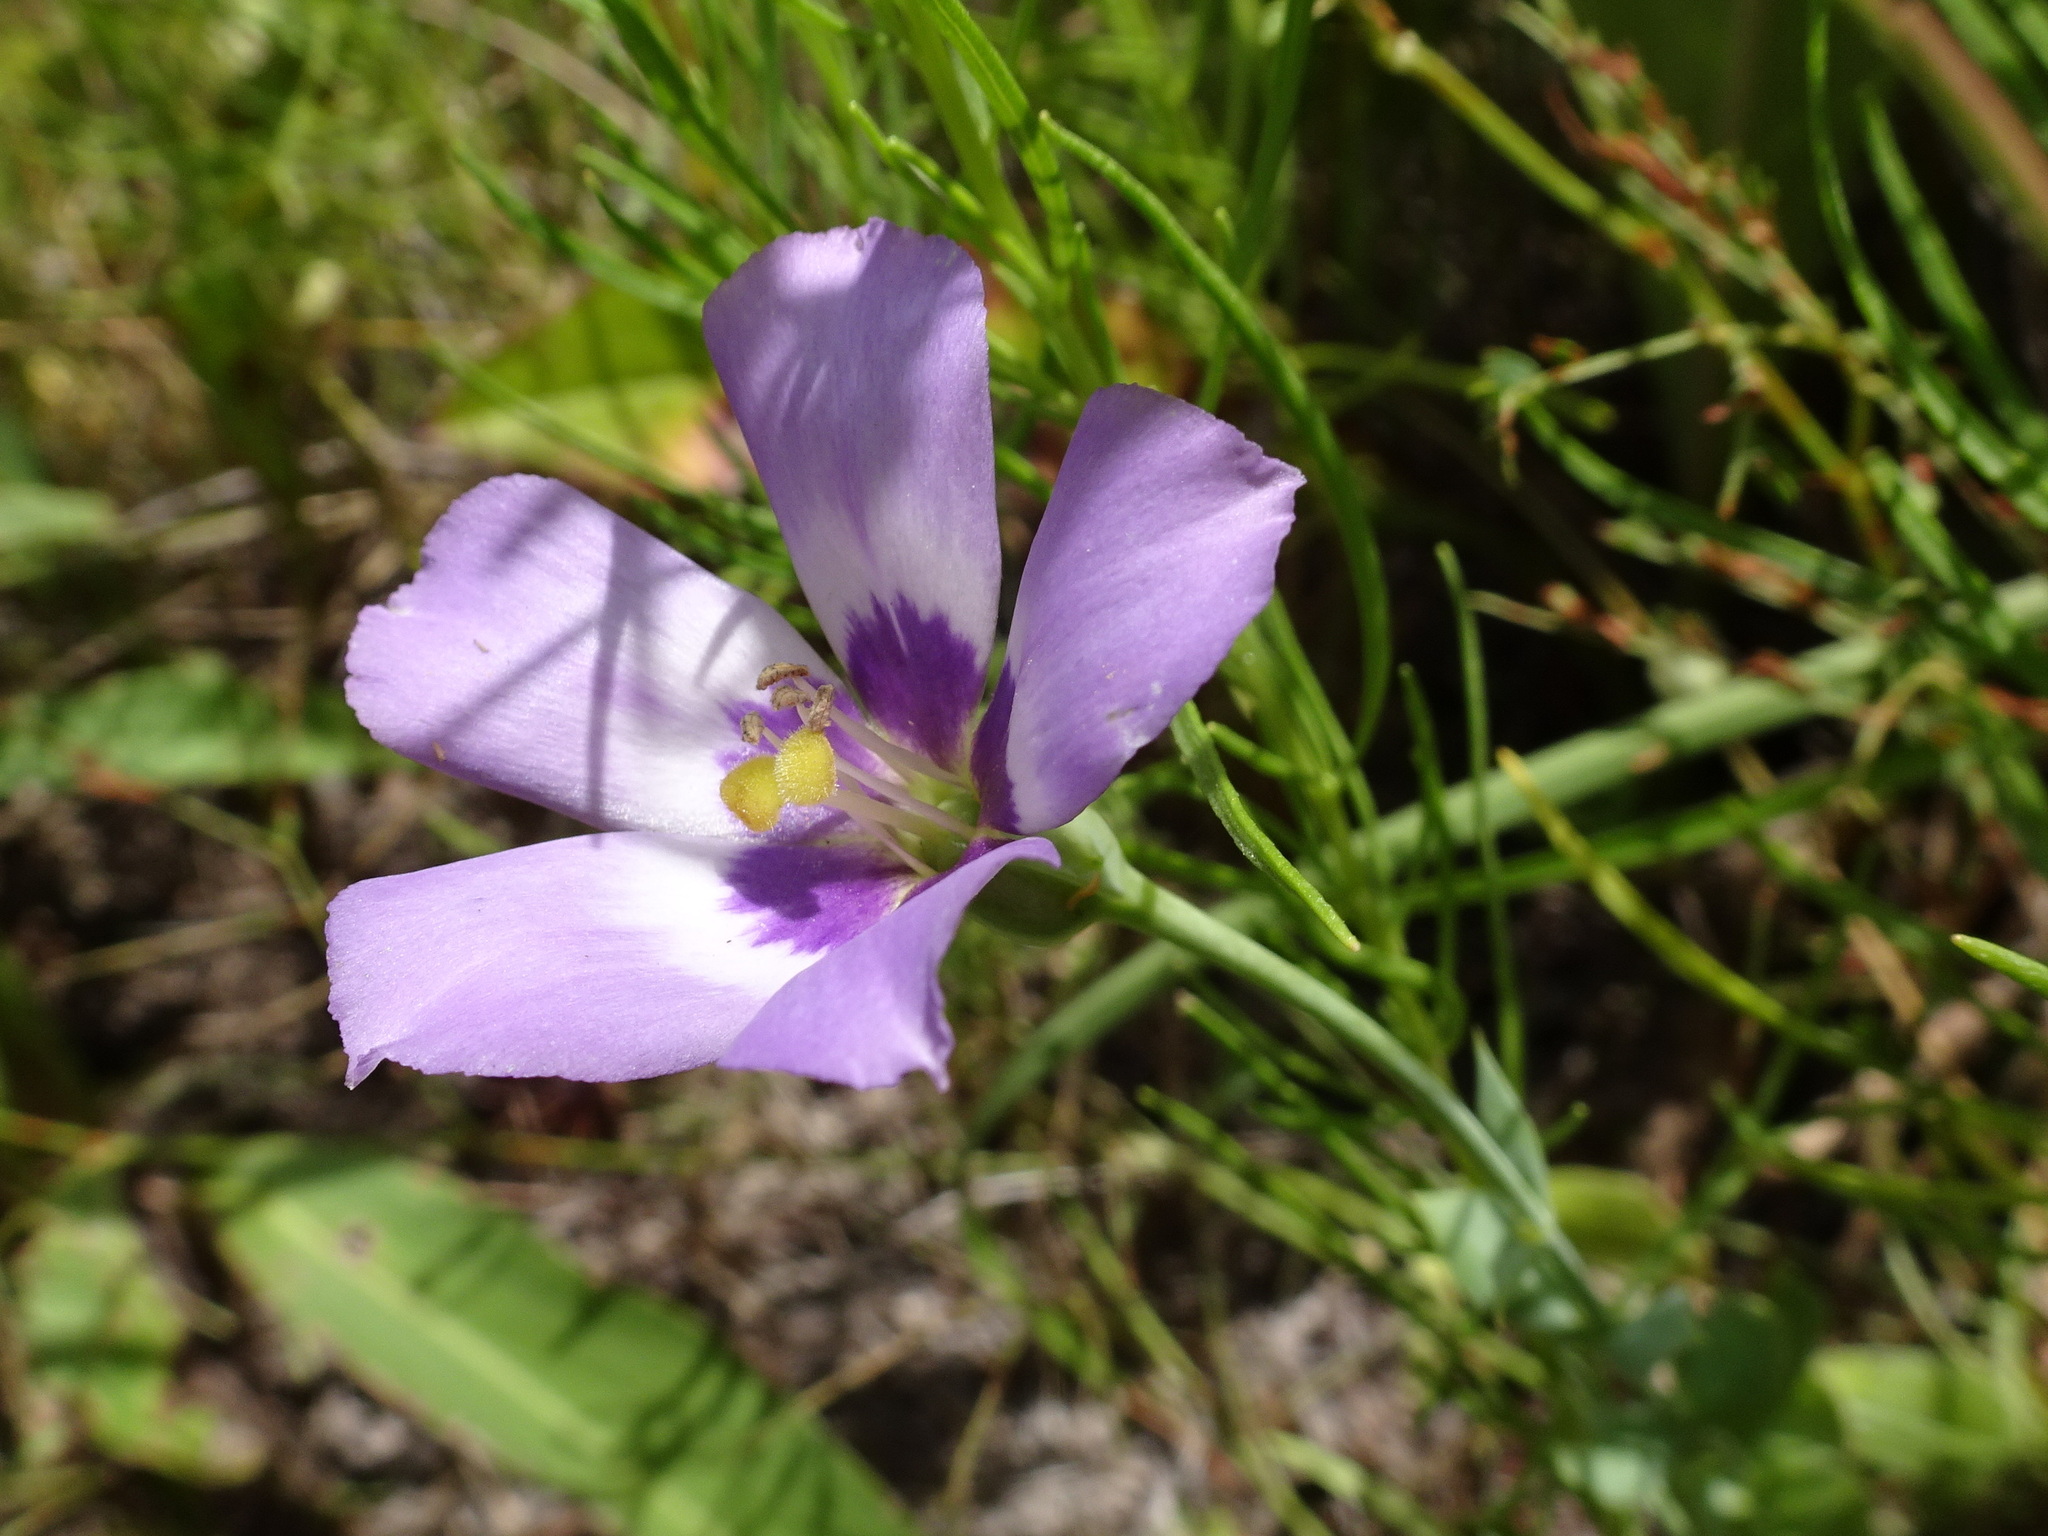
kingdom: Plantae
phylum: Tracheophyta
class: Magnoliopsida
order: Gentianales
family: Gentianaceae
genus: Eustoma
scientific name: Eustoma exaltatum
